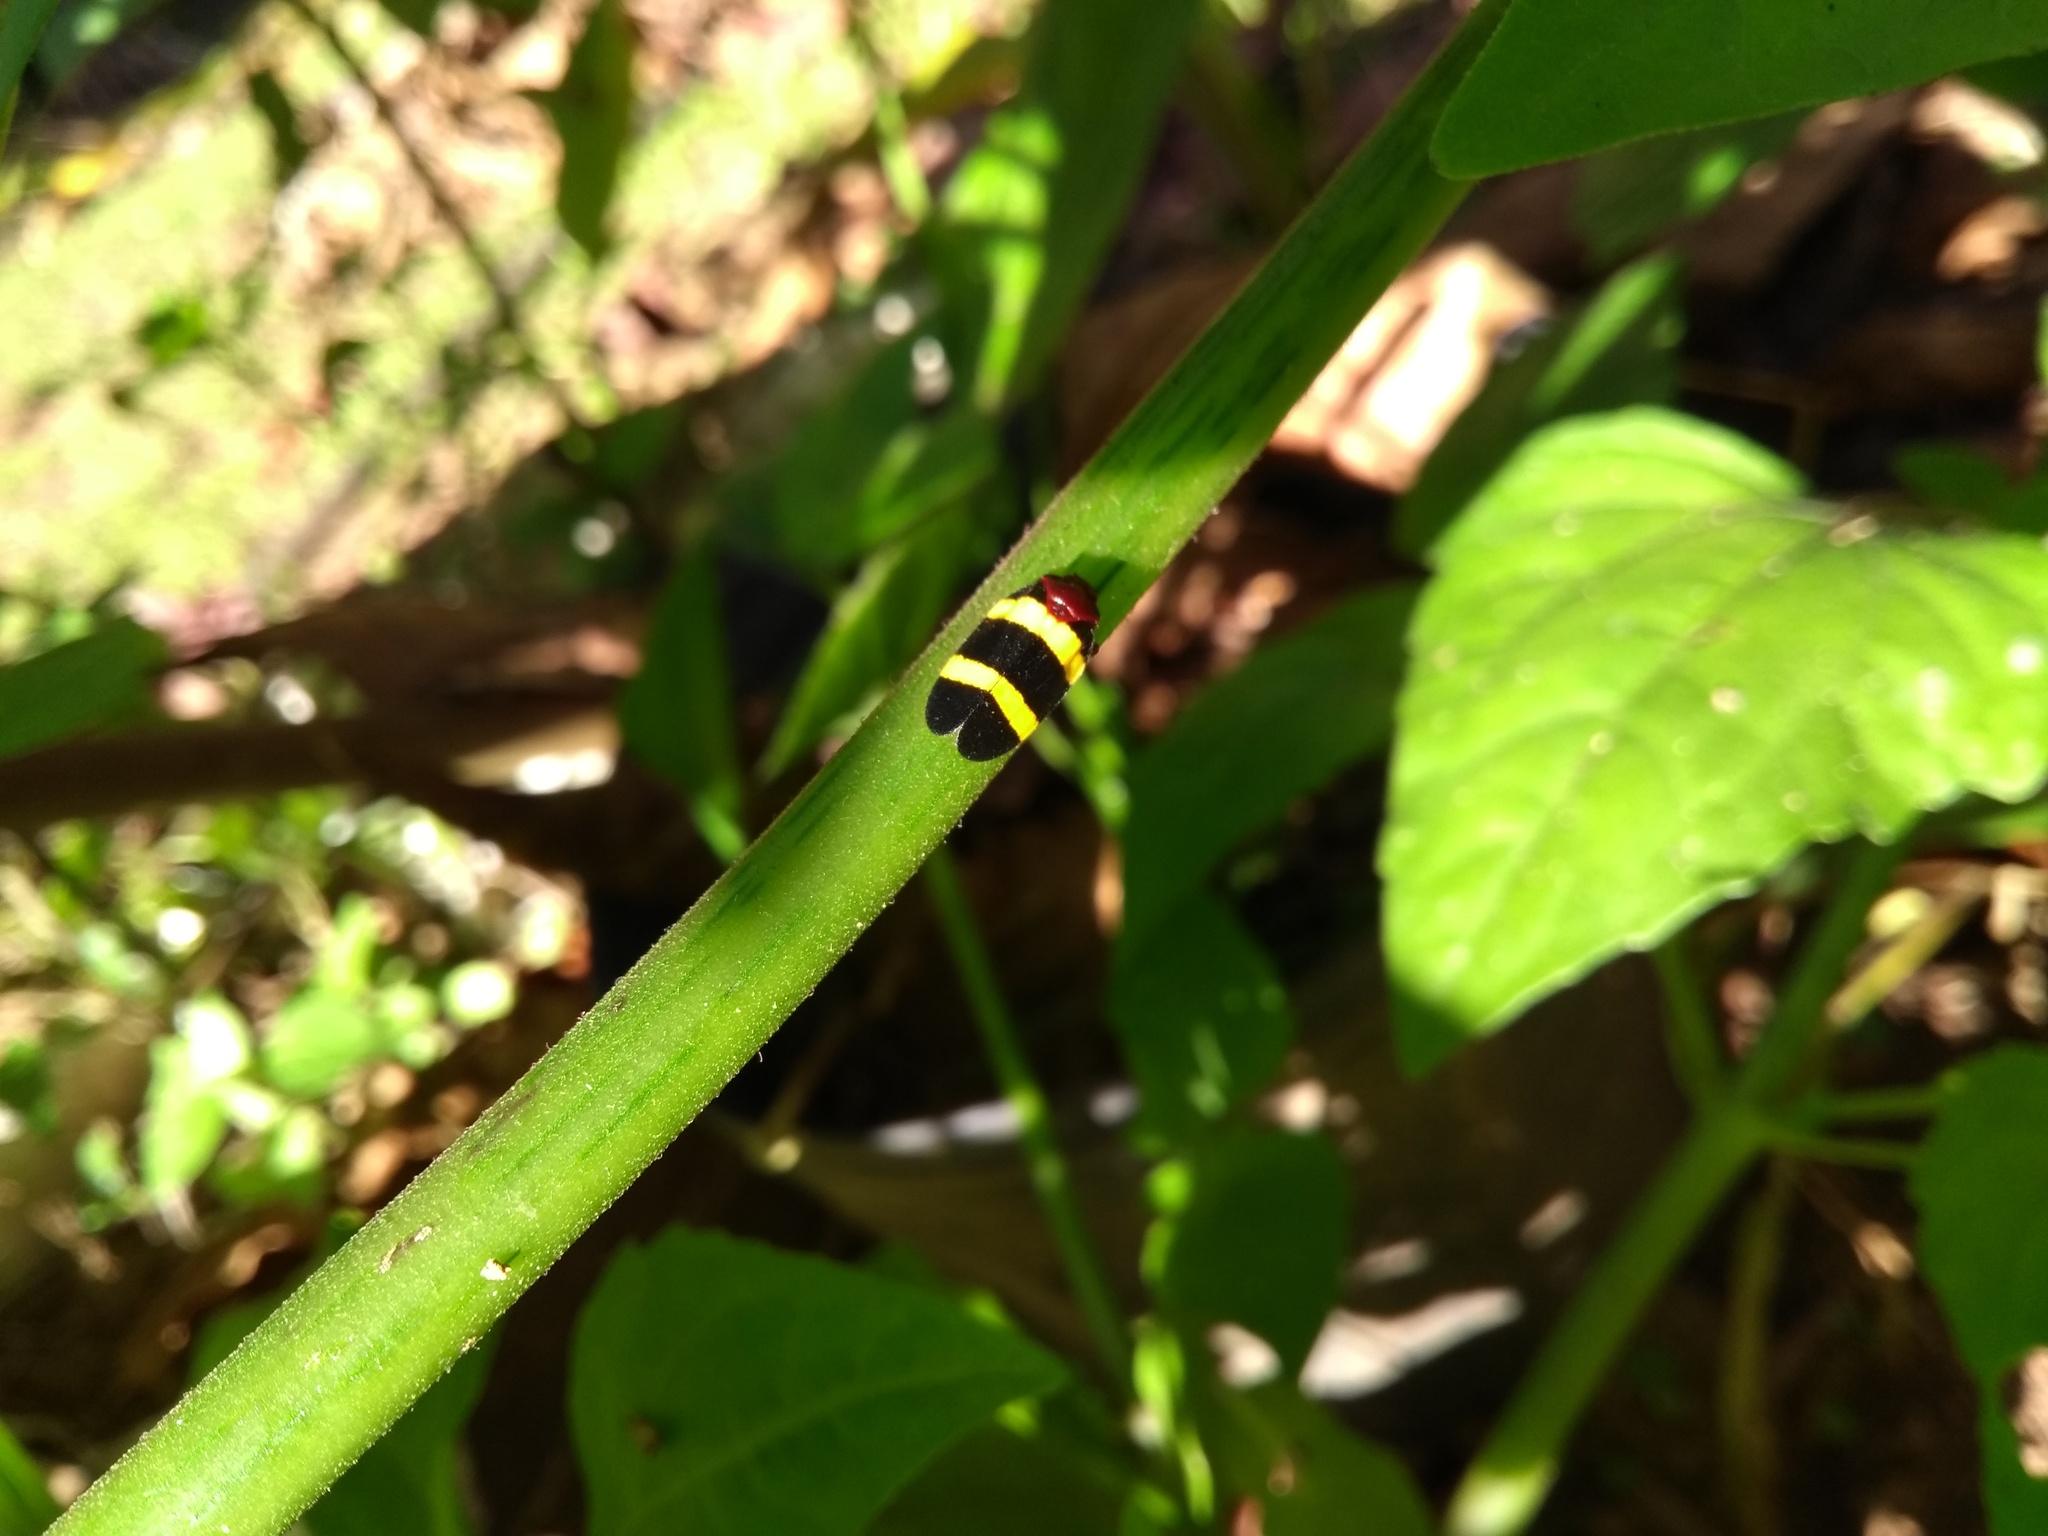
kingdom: Animalia
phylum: Arthropoda
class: Insecta
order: Hemiptera
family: Cercopidae
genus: Sphenorhina
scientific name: Sphenorhina rubra
